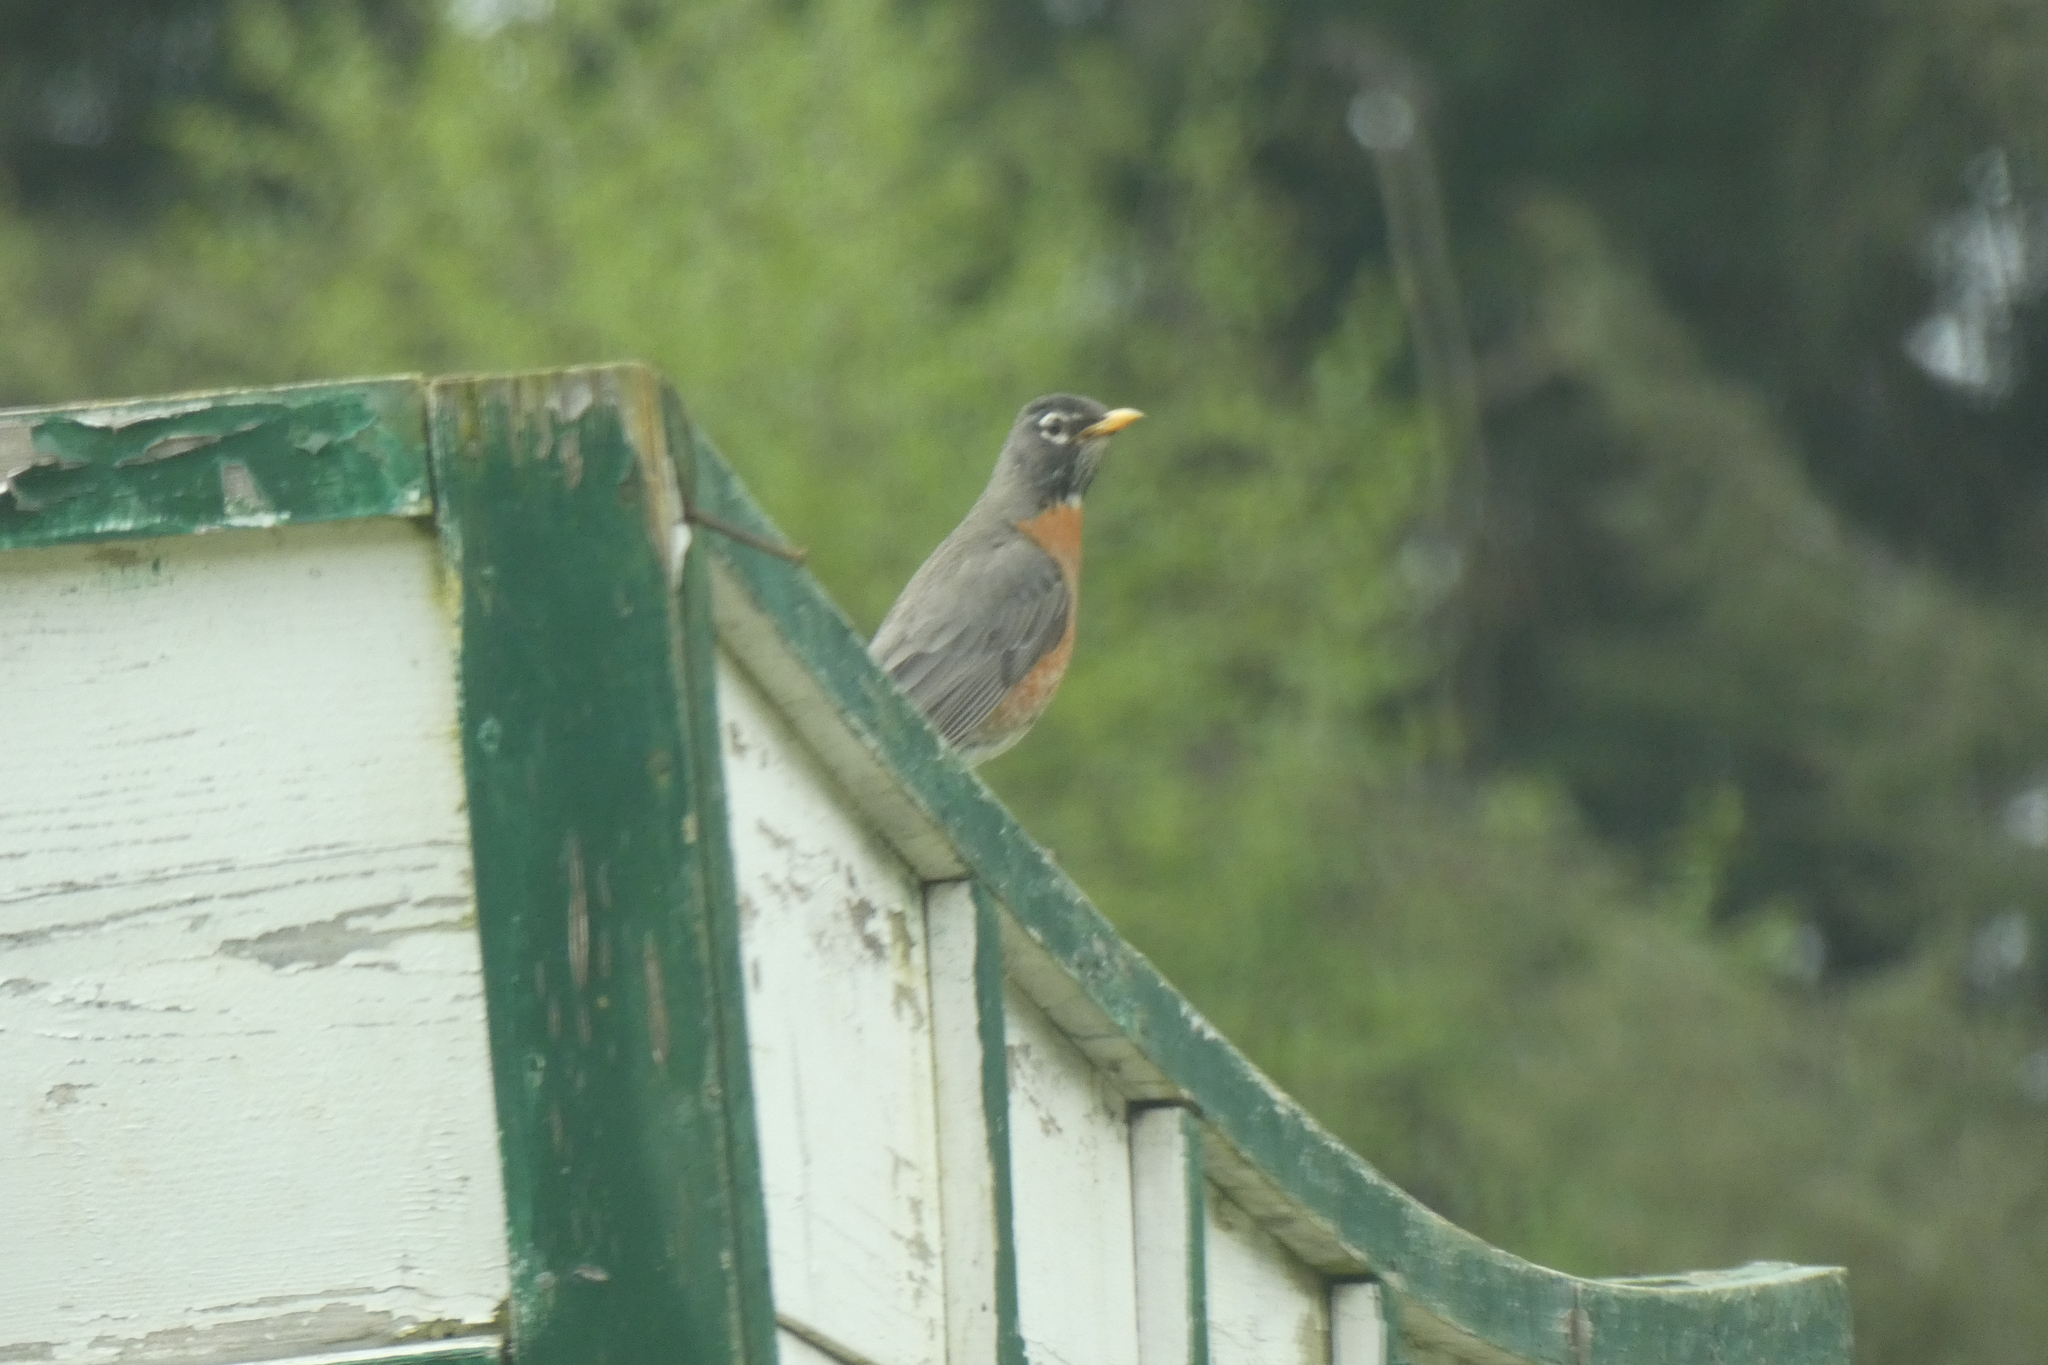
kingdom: Animalia
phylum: Chordata
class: Aves
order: Passeriformes
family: Turdidae
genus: Turdus
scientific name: Turdus migratorius
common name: American robin
